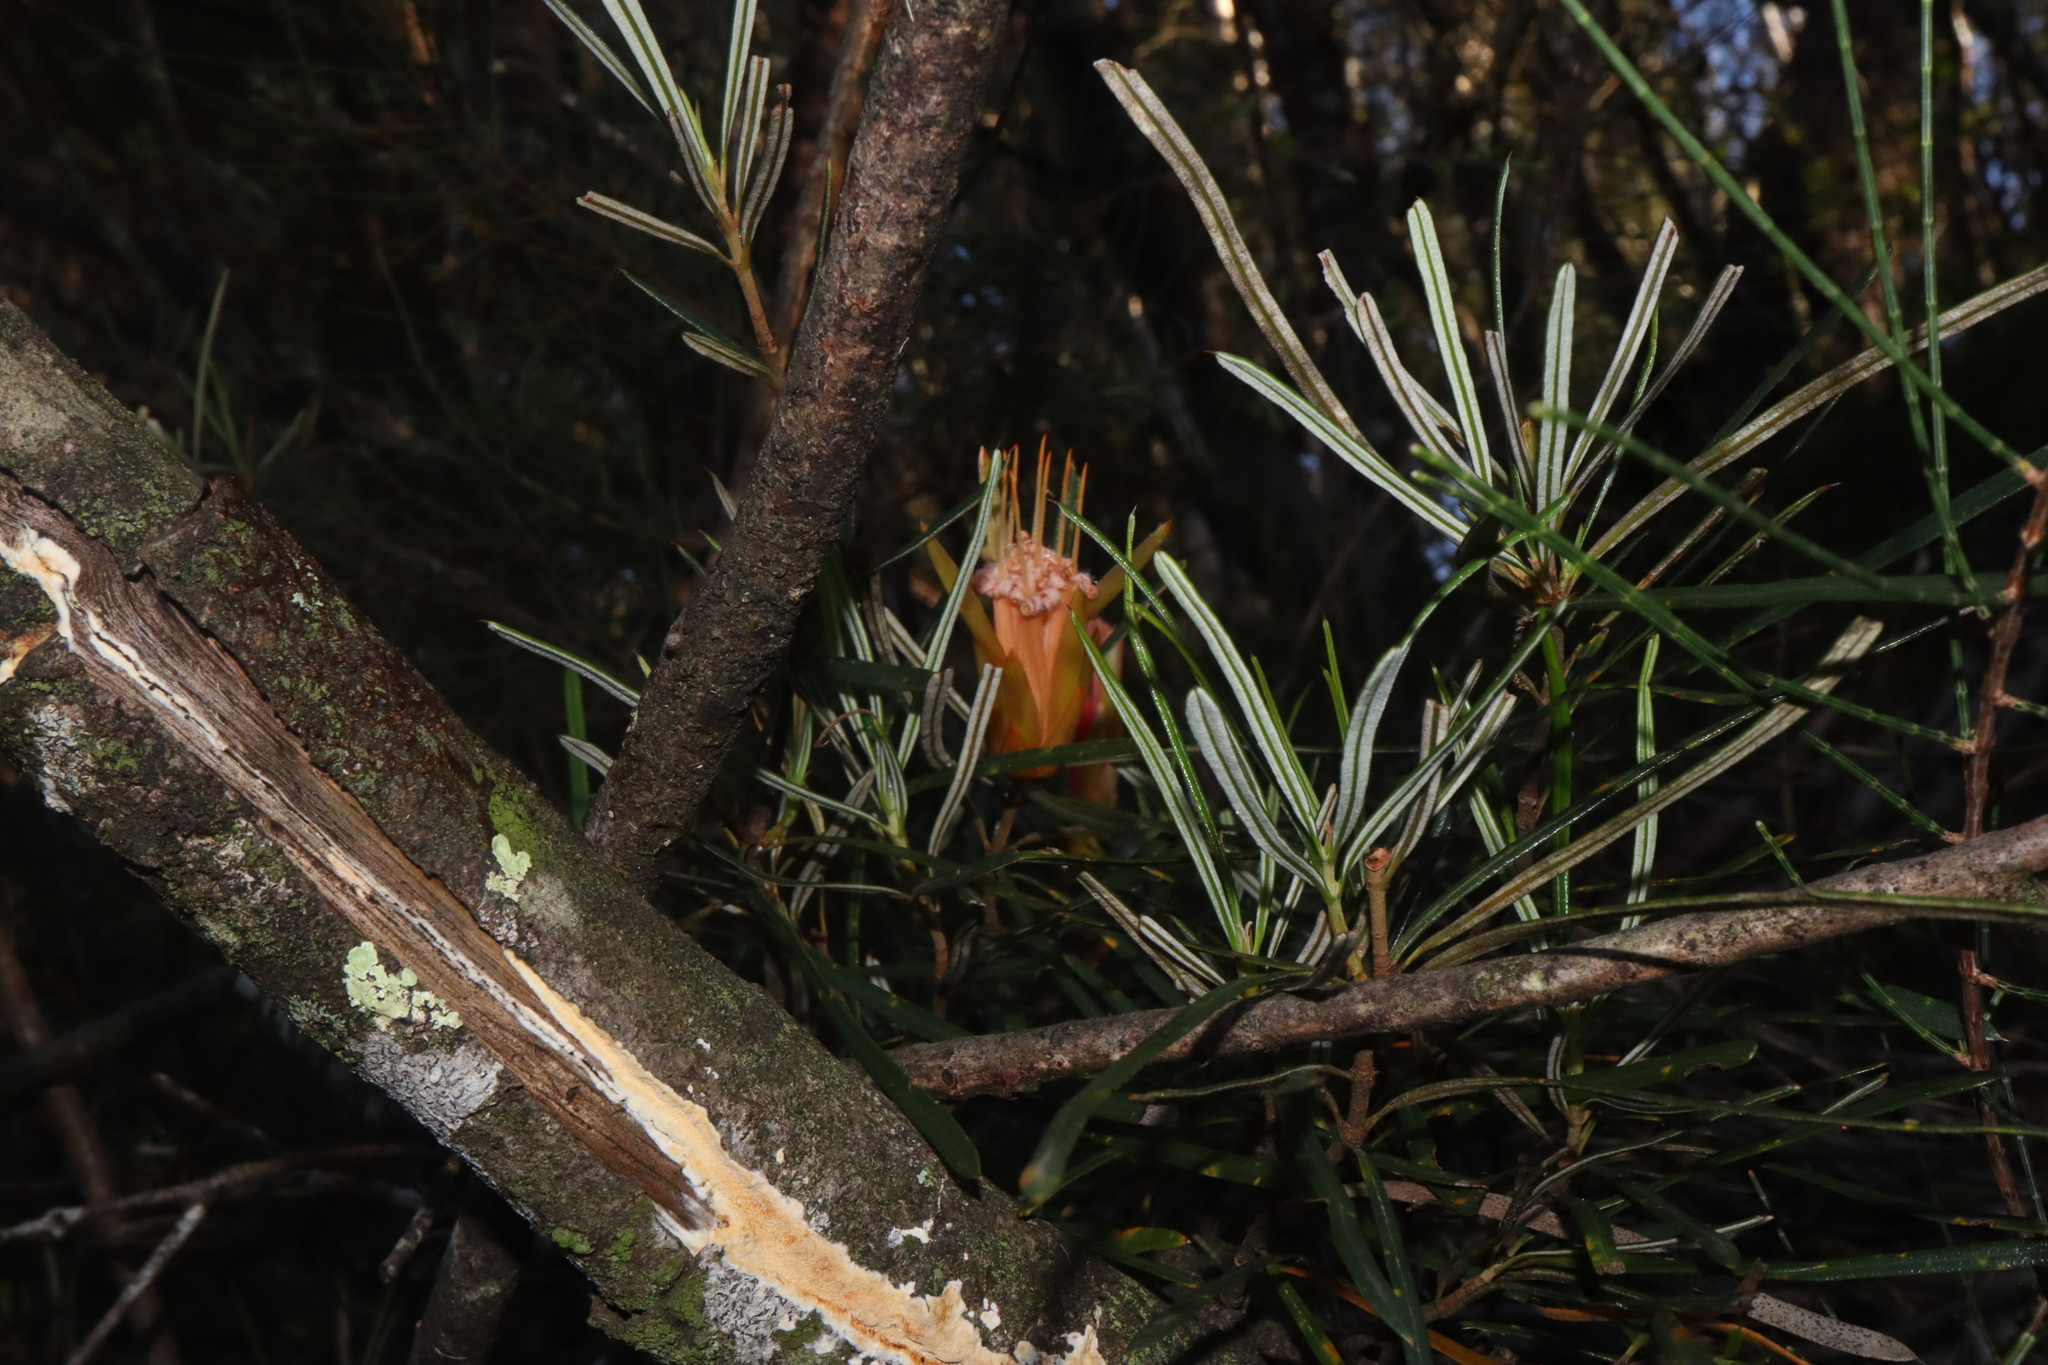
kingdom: Plantae
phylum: Tracheophyta
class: Magnoliopsida
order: Proteales
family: Proteaceae
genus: Lambertia
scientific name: Lambertia formosa
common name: Mountain-devil
